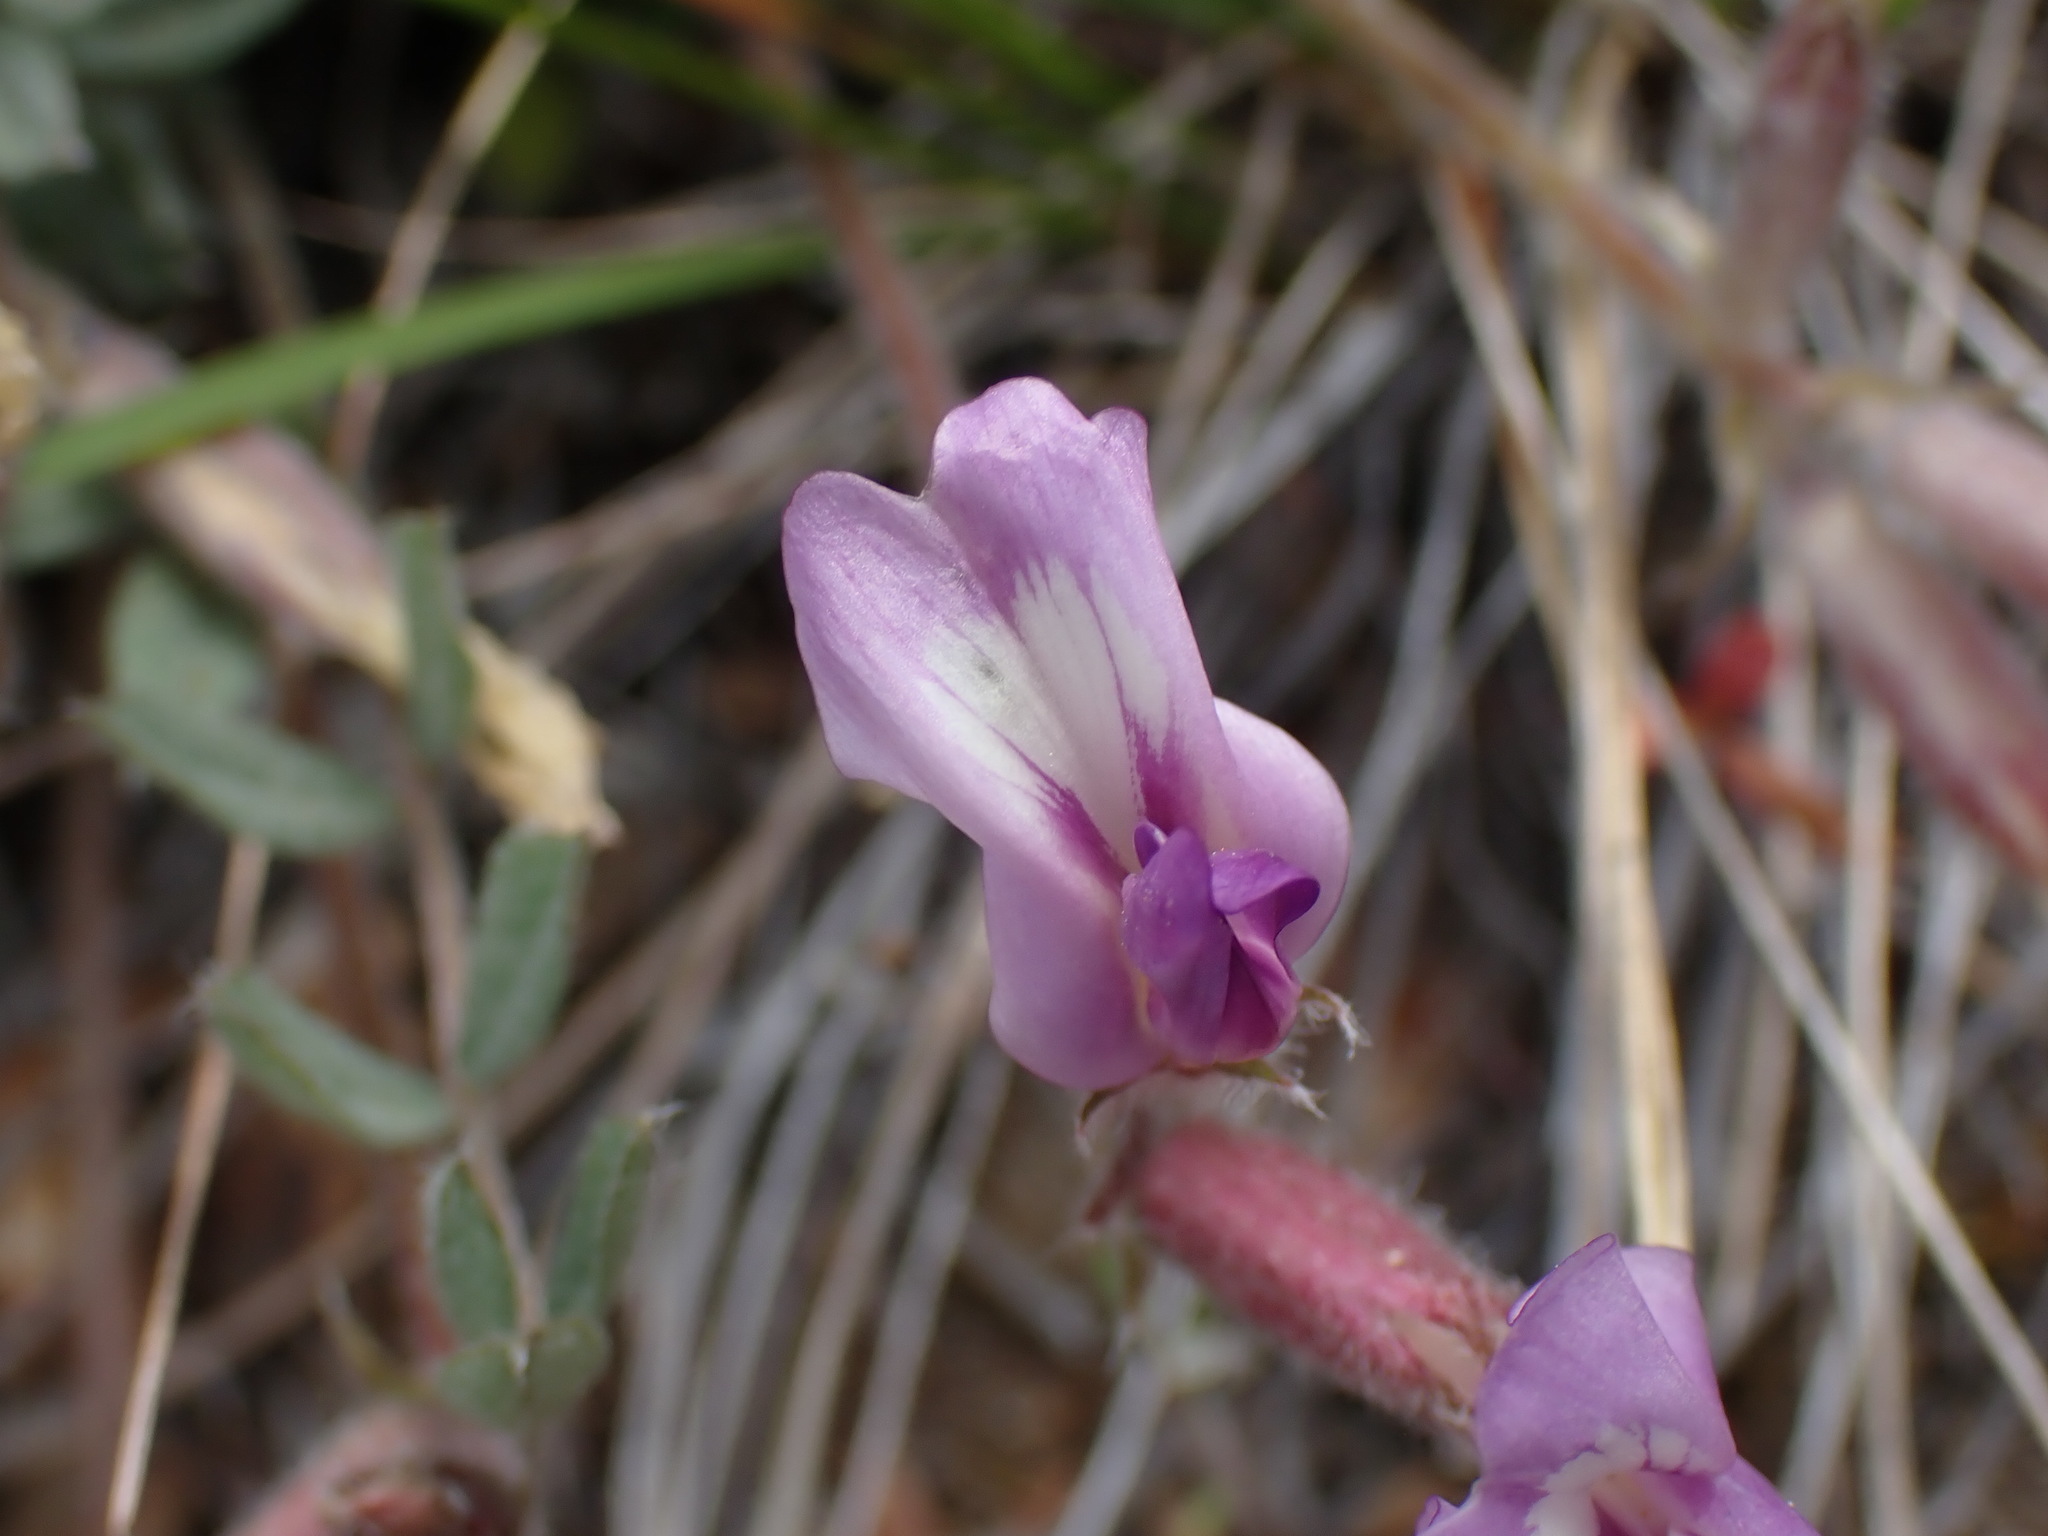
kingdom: Plantae
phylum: Tracheophyta
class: Magnoliopsida
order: Fabales
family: Fabaceae
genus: Astragalus
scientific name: Astragalus purshii
